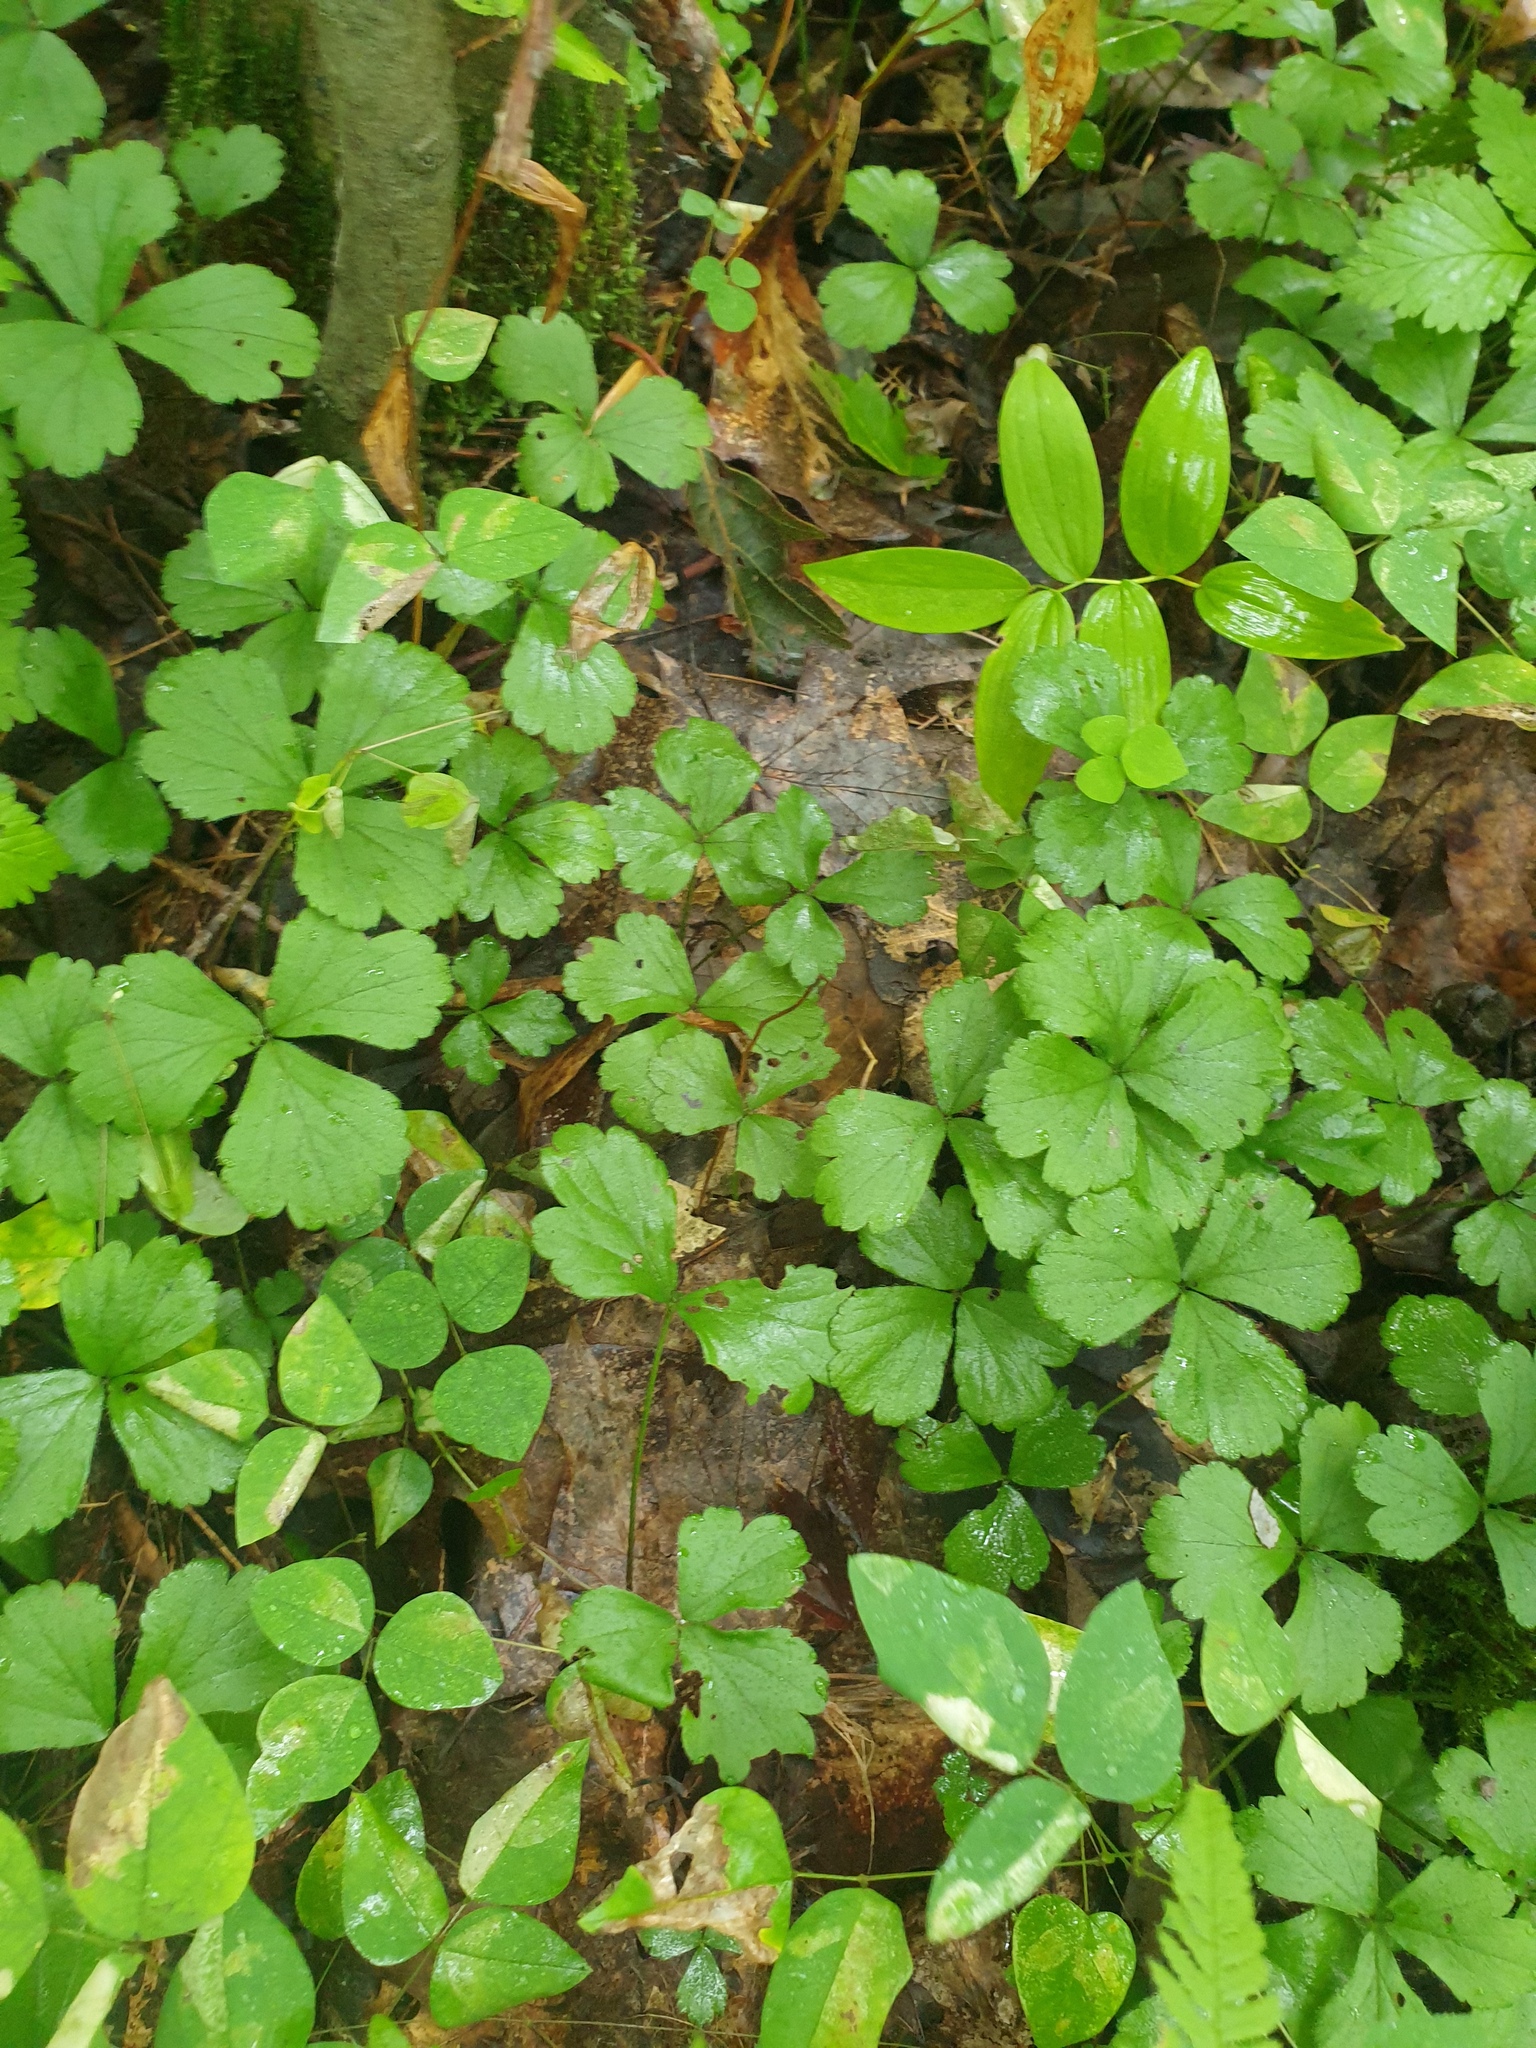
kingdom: Plantae
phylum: Tracheophyta
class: Magnoliopsida
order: Rosales
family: Rosaceae
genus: Geum
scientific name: Geum fragarioides
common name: Appalachian barren strawberry
